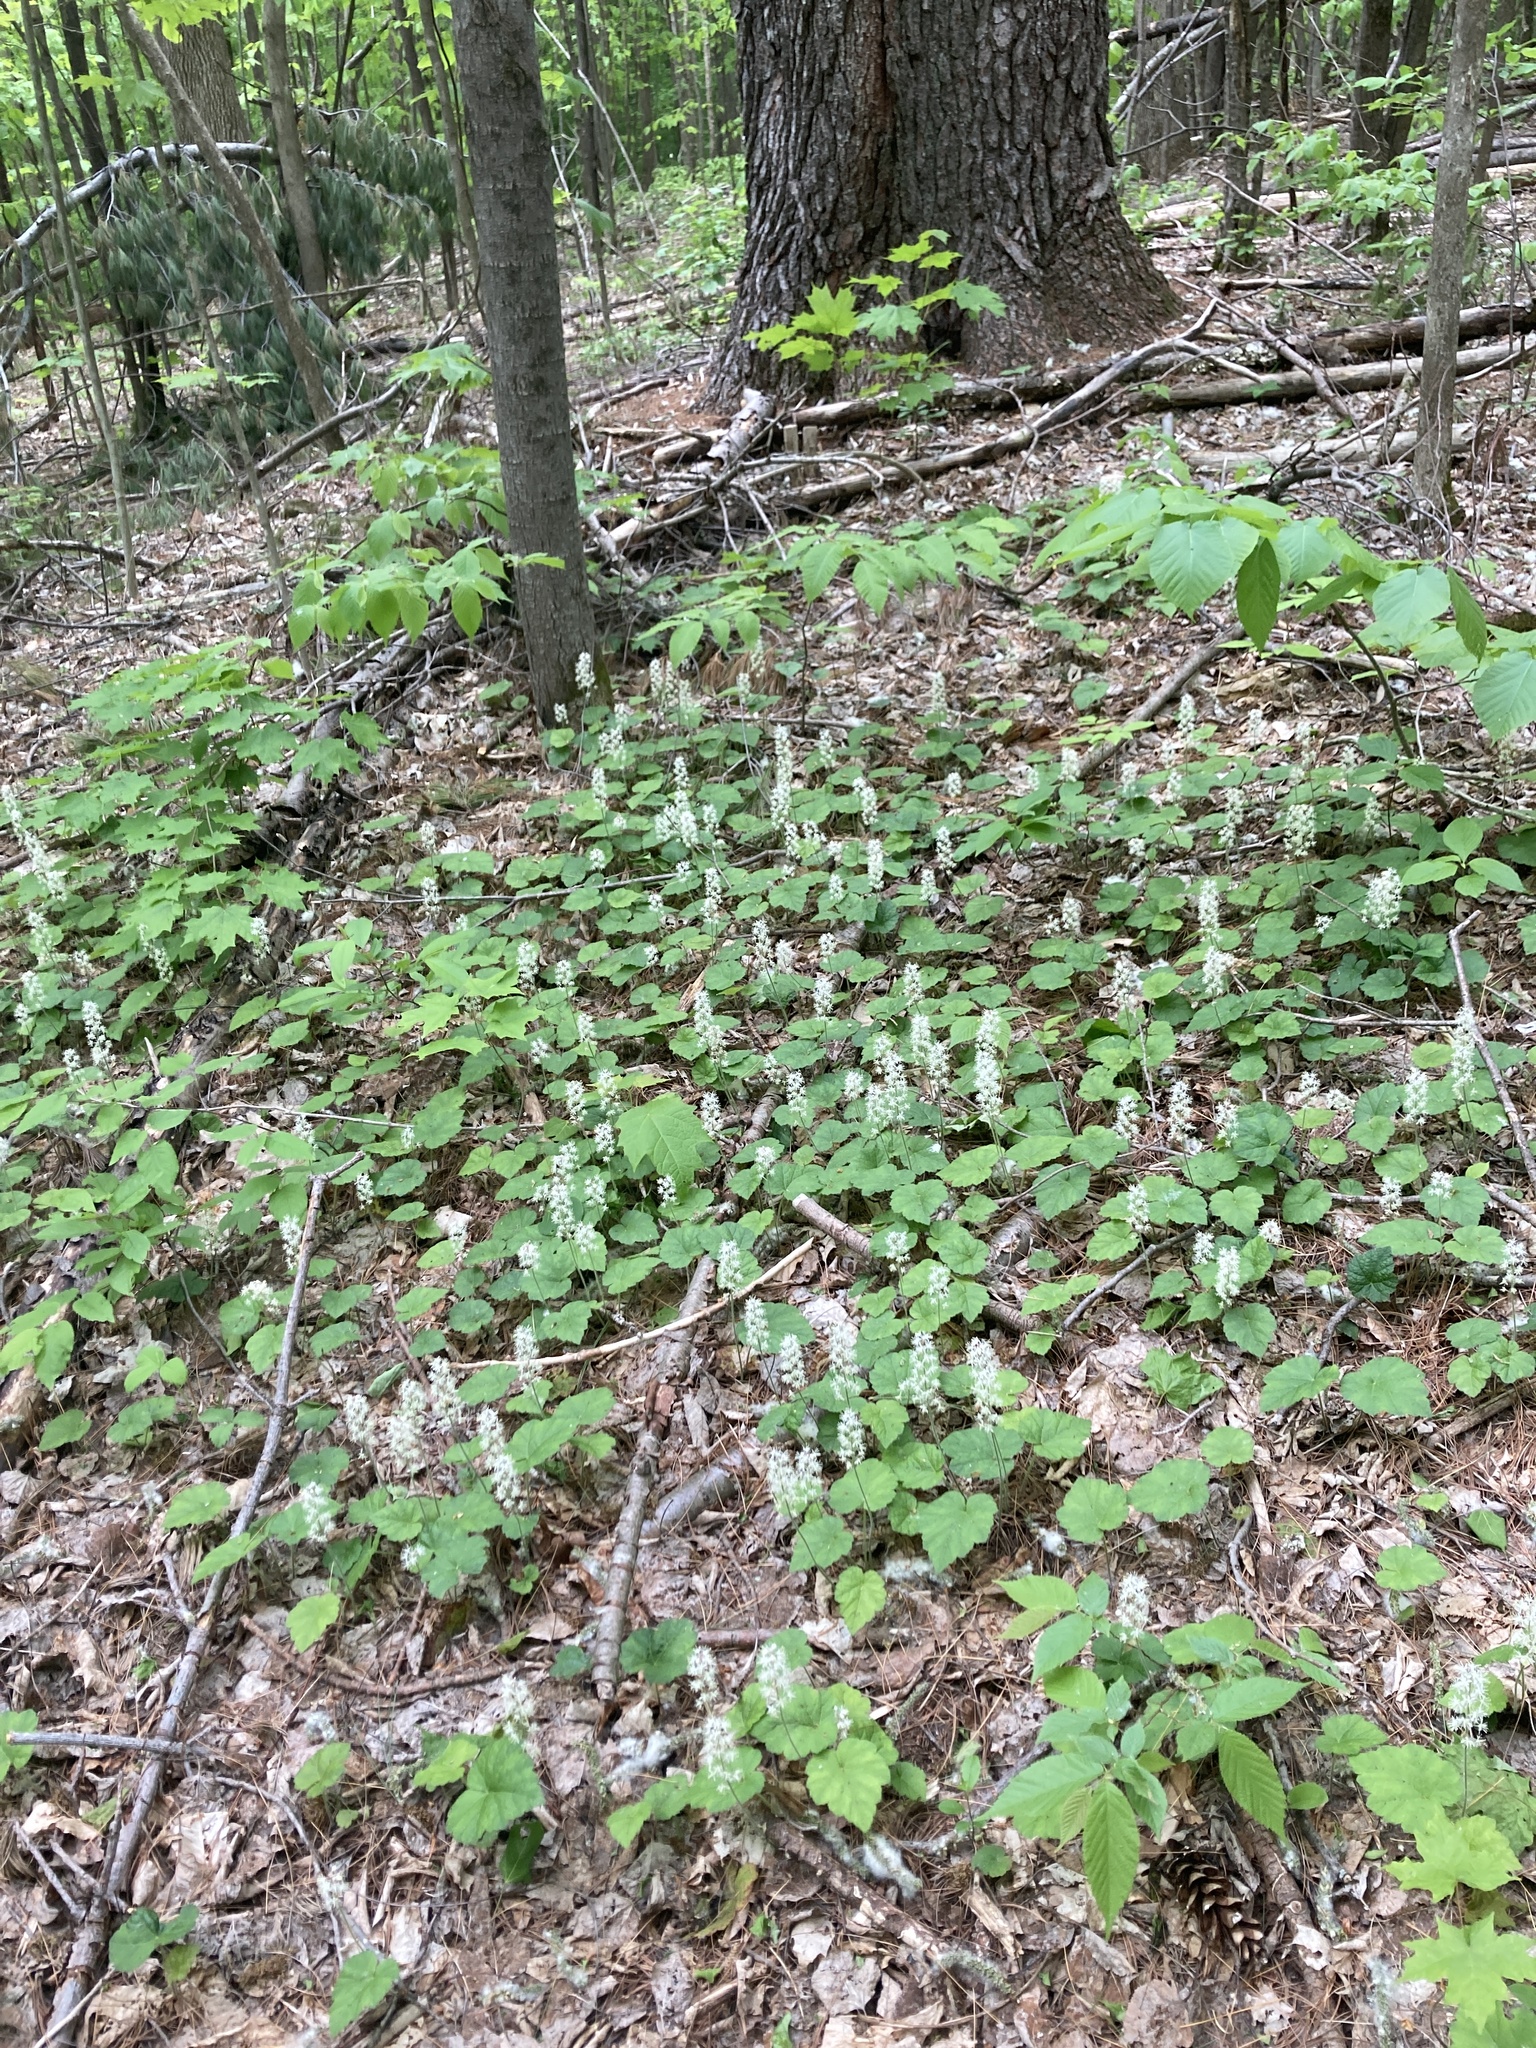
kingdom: Plantae
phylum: Tracheophyta
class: Magnoliopsida
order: Saxifragales
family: Saxifragaceae
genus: Tiarella
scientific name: Tiarella stolonifera
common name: Stoloniferous foamflower
